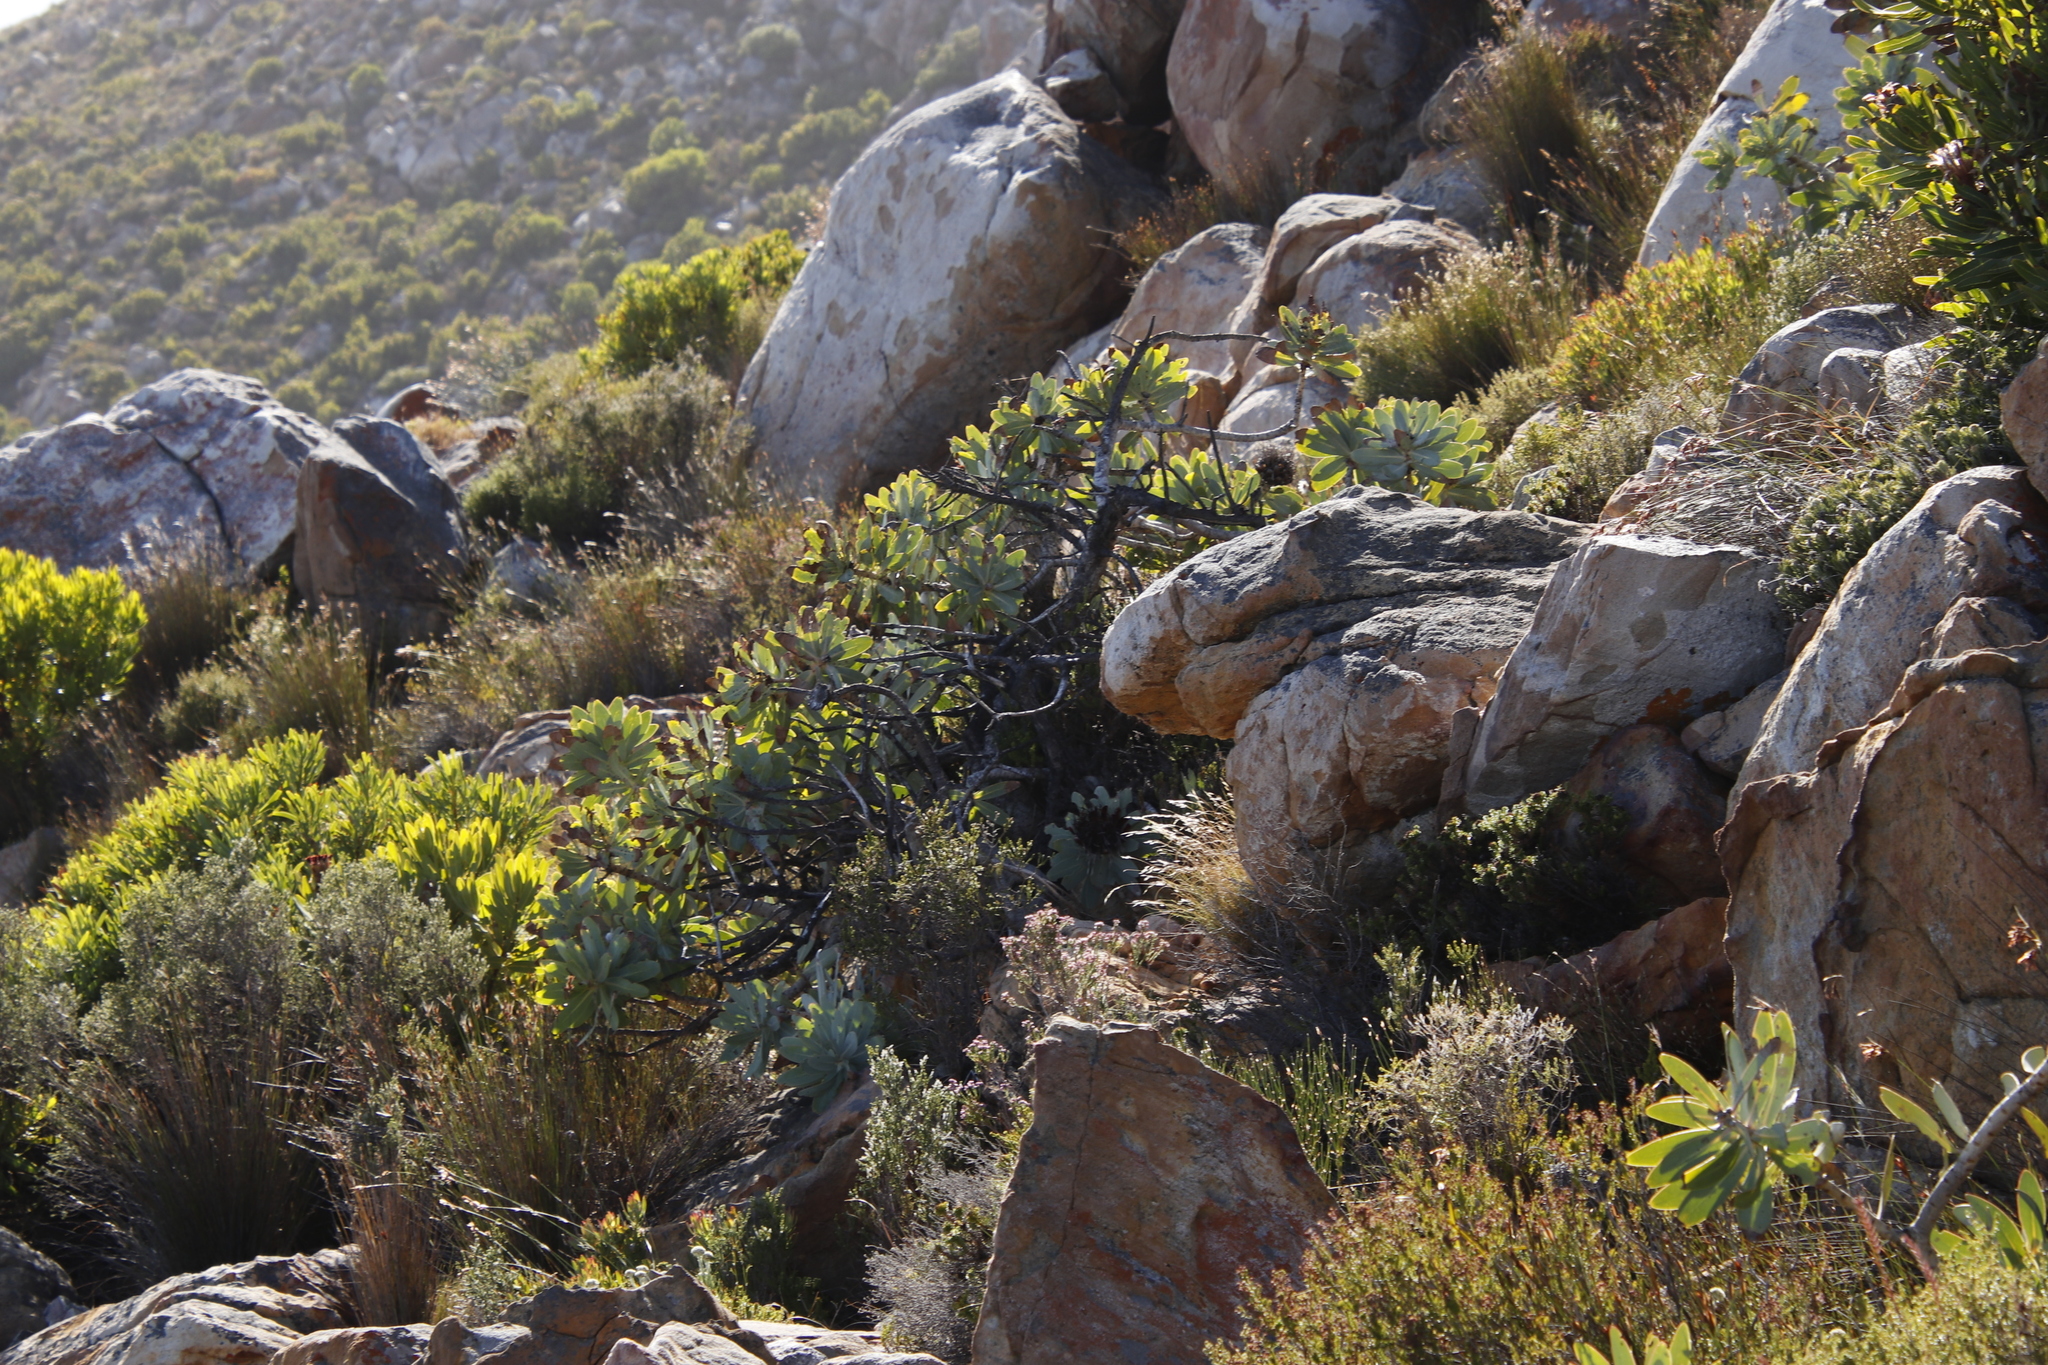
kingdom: Plantae
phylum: Tracheophyta
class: Magnoliopsida
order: Proteales
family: Proteaceae
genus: Protea
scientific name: Protea nitida
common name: Tree protea
